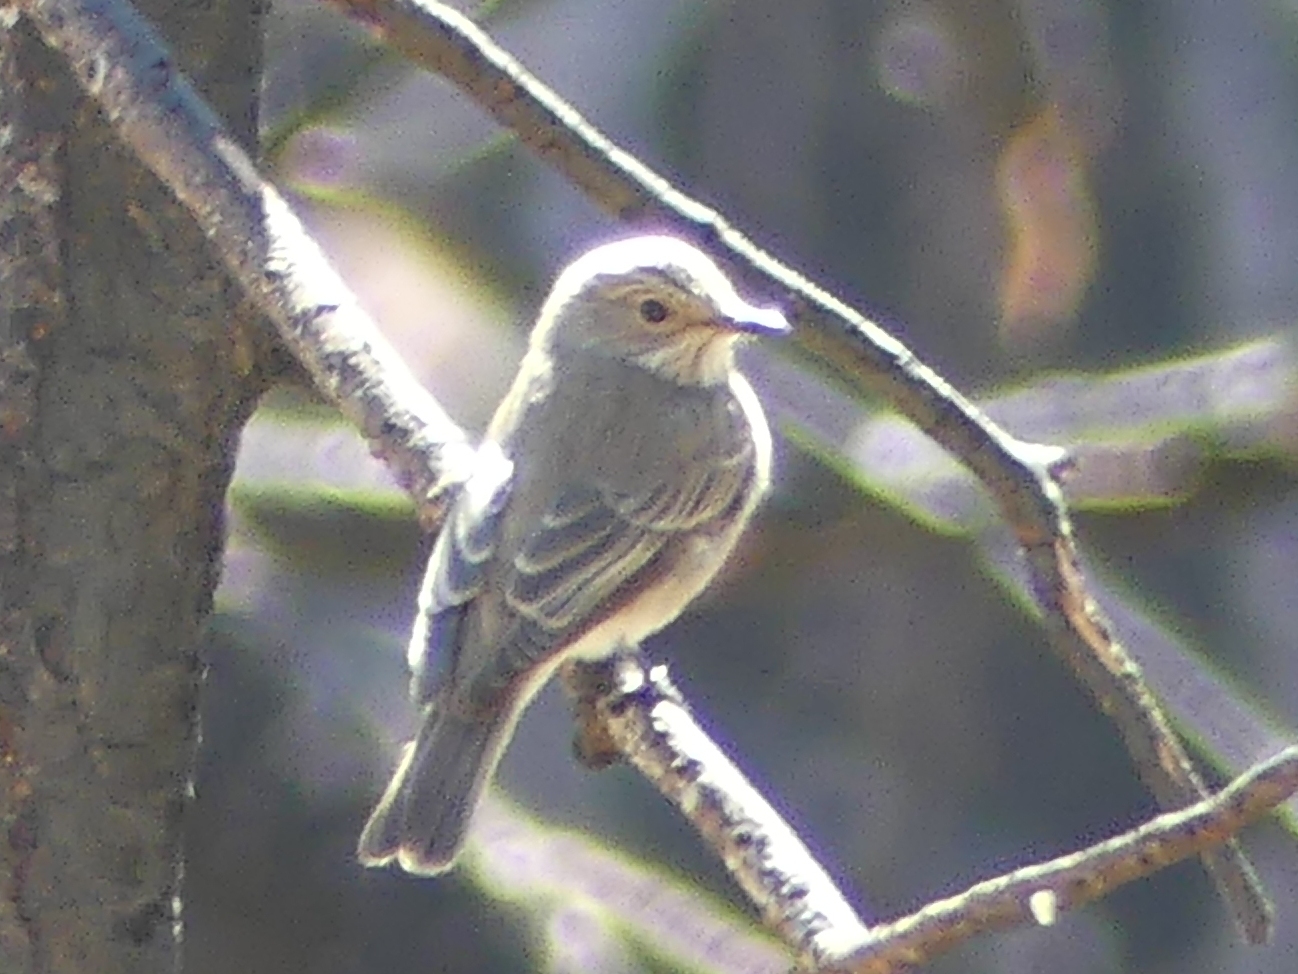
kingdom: Animalia
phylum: Chordata
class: Aves
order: Passeriformes
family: Muscicapidae
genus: Muscicapa
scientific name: Muscicapa striata
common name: Spotted flycatcher
